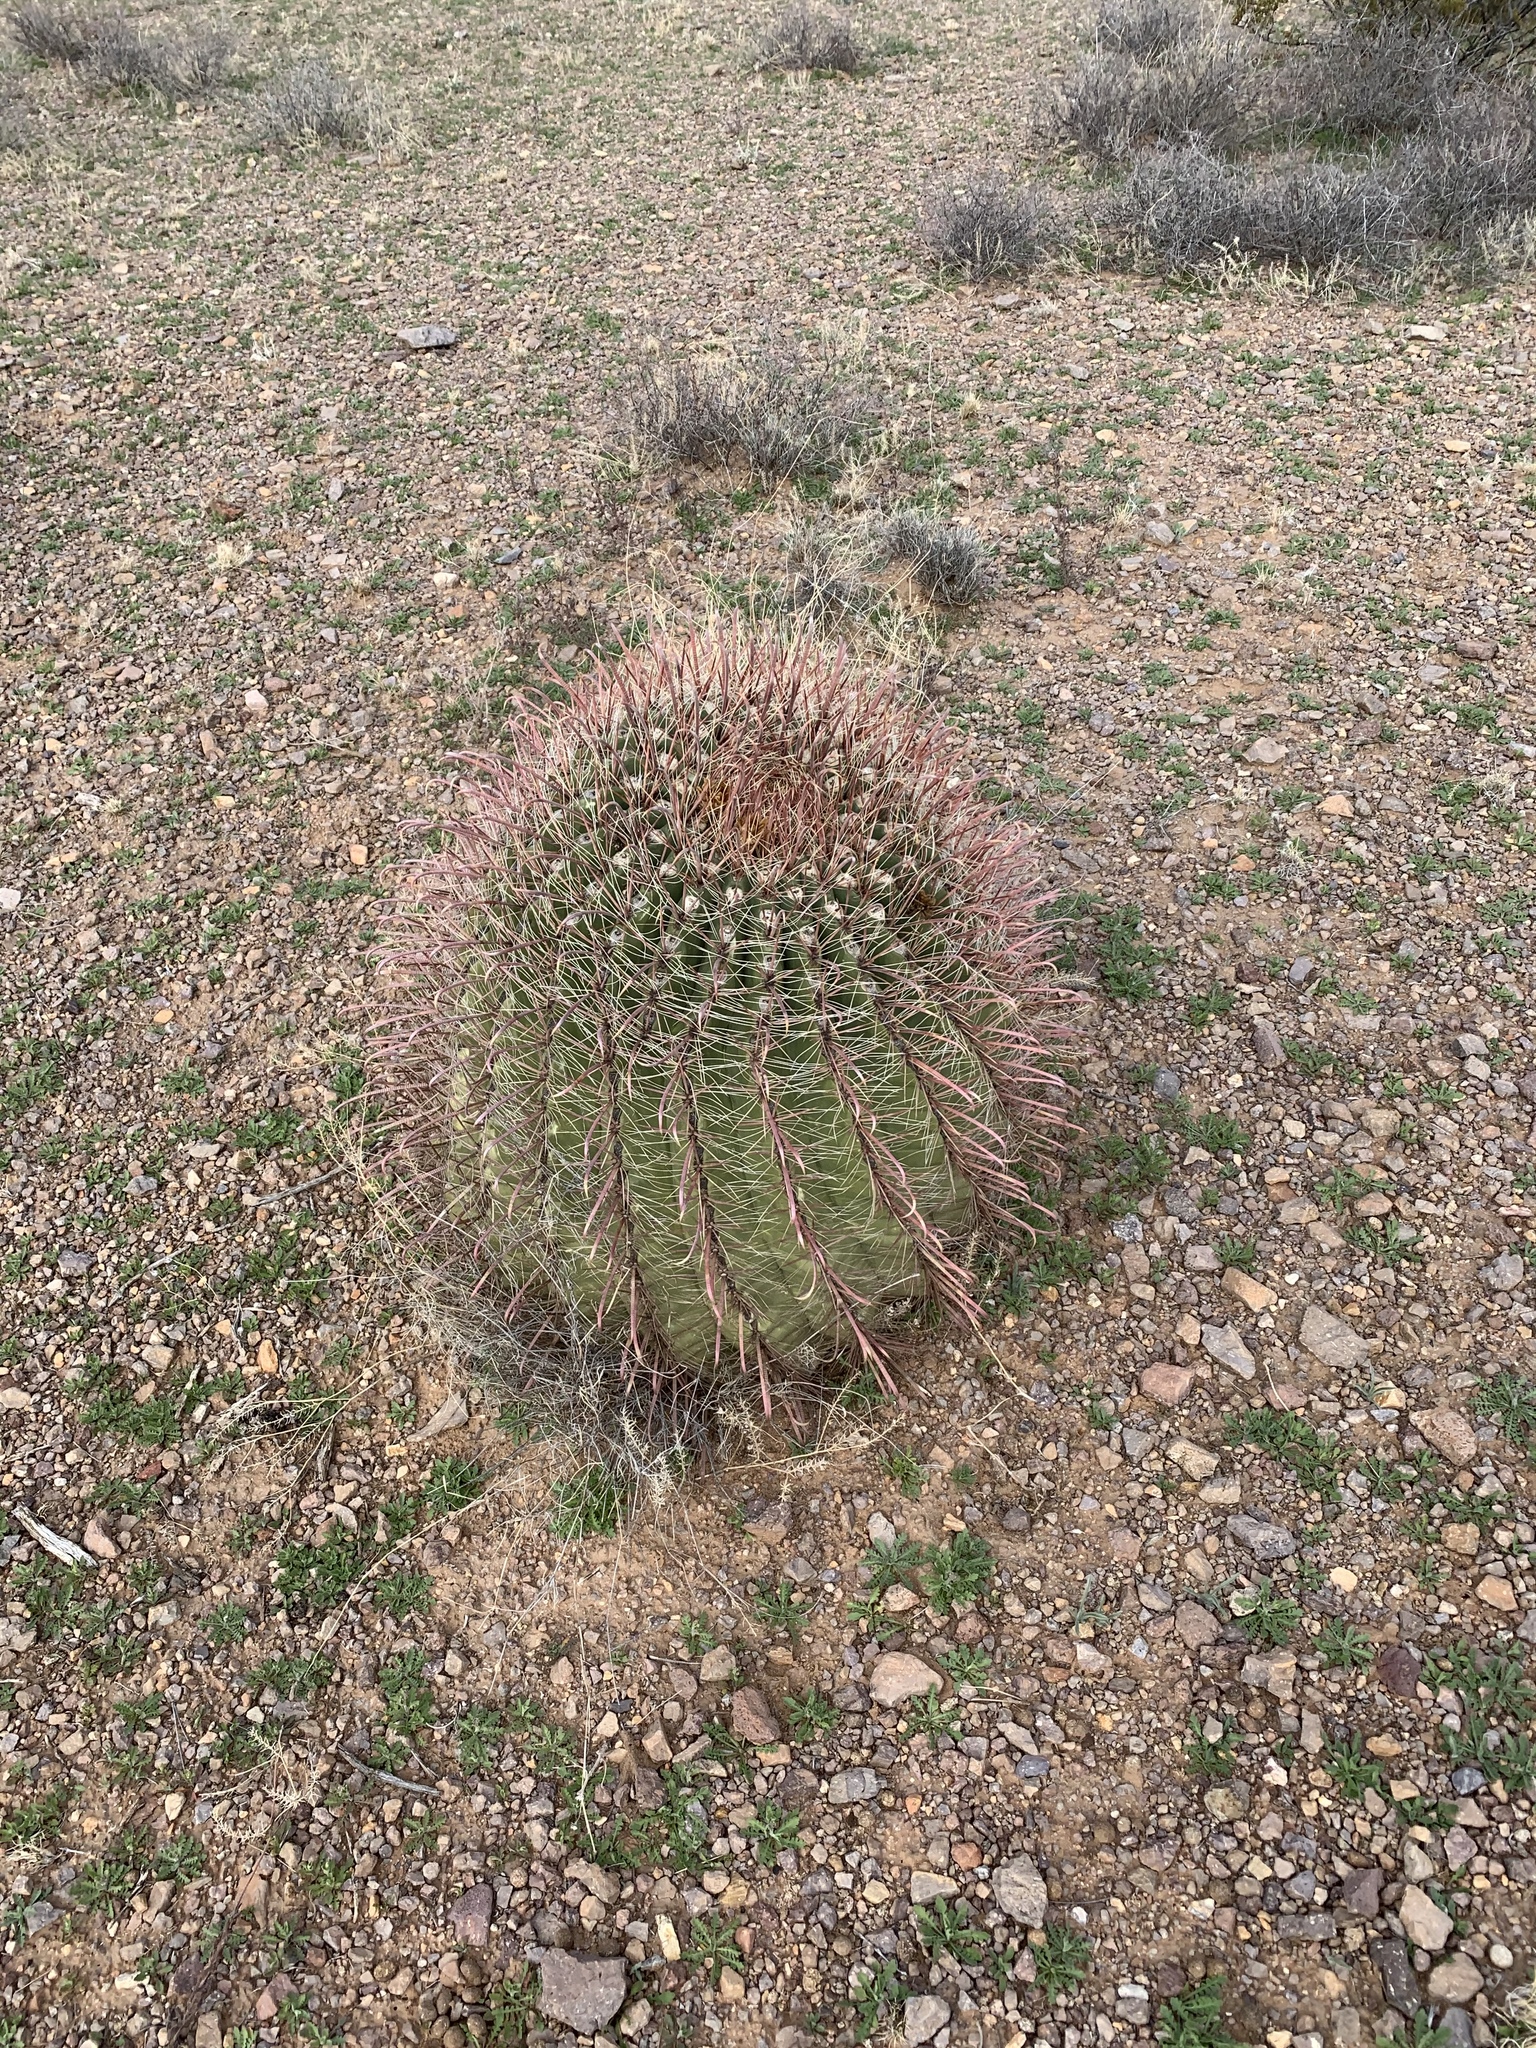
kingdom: Plantae
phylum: Tracheophyta
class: Magnoliopsida
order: Caryophyllales
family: Cactaceae
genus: Ferocactus
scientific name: Ferocactus wislizeni
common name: Candy barrel cactus
